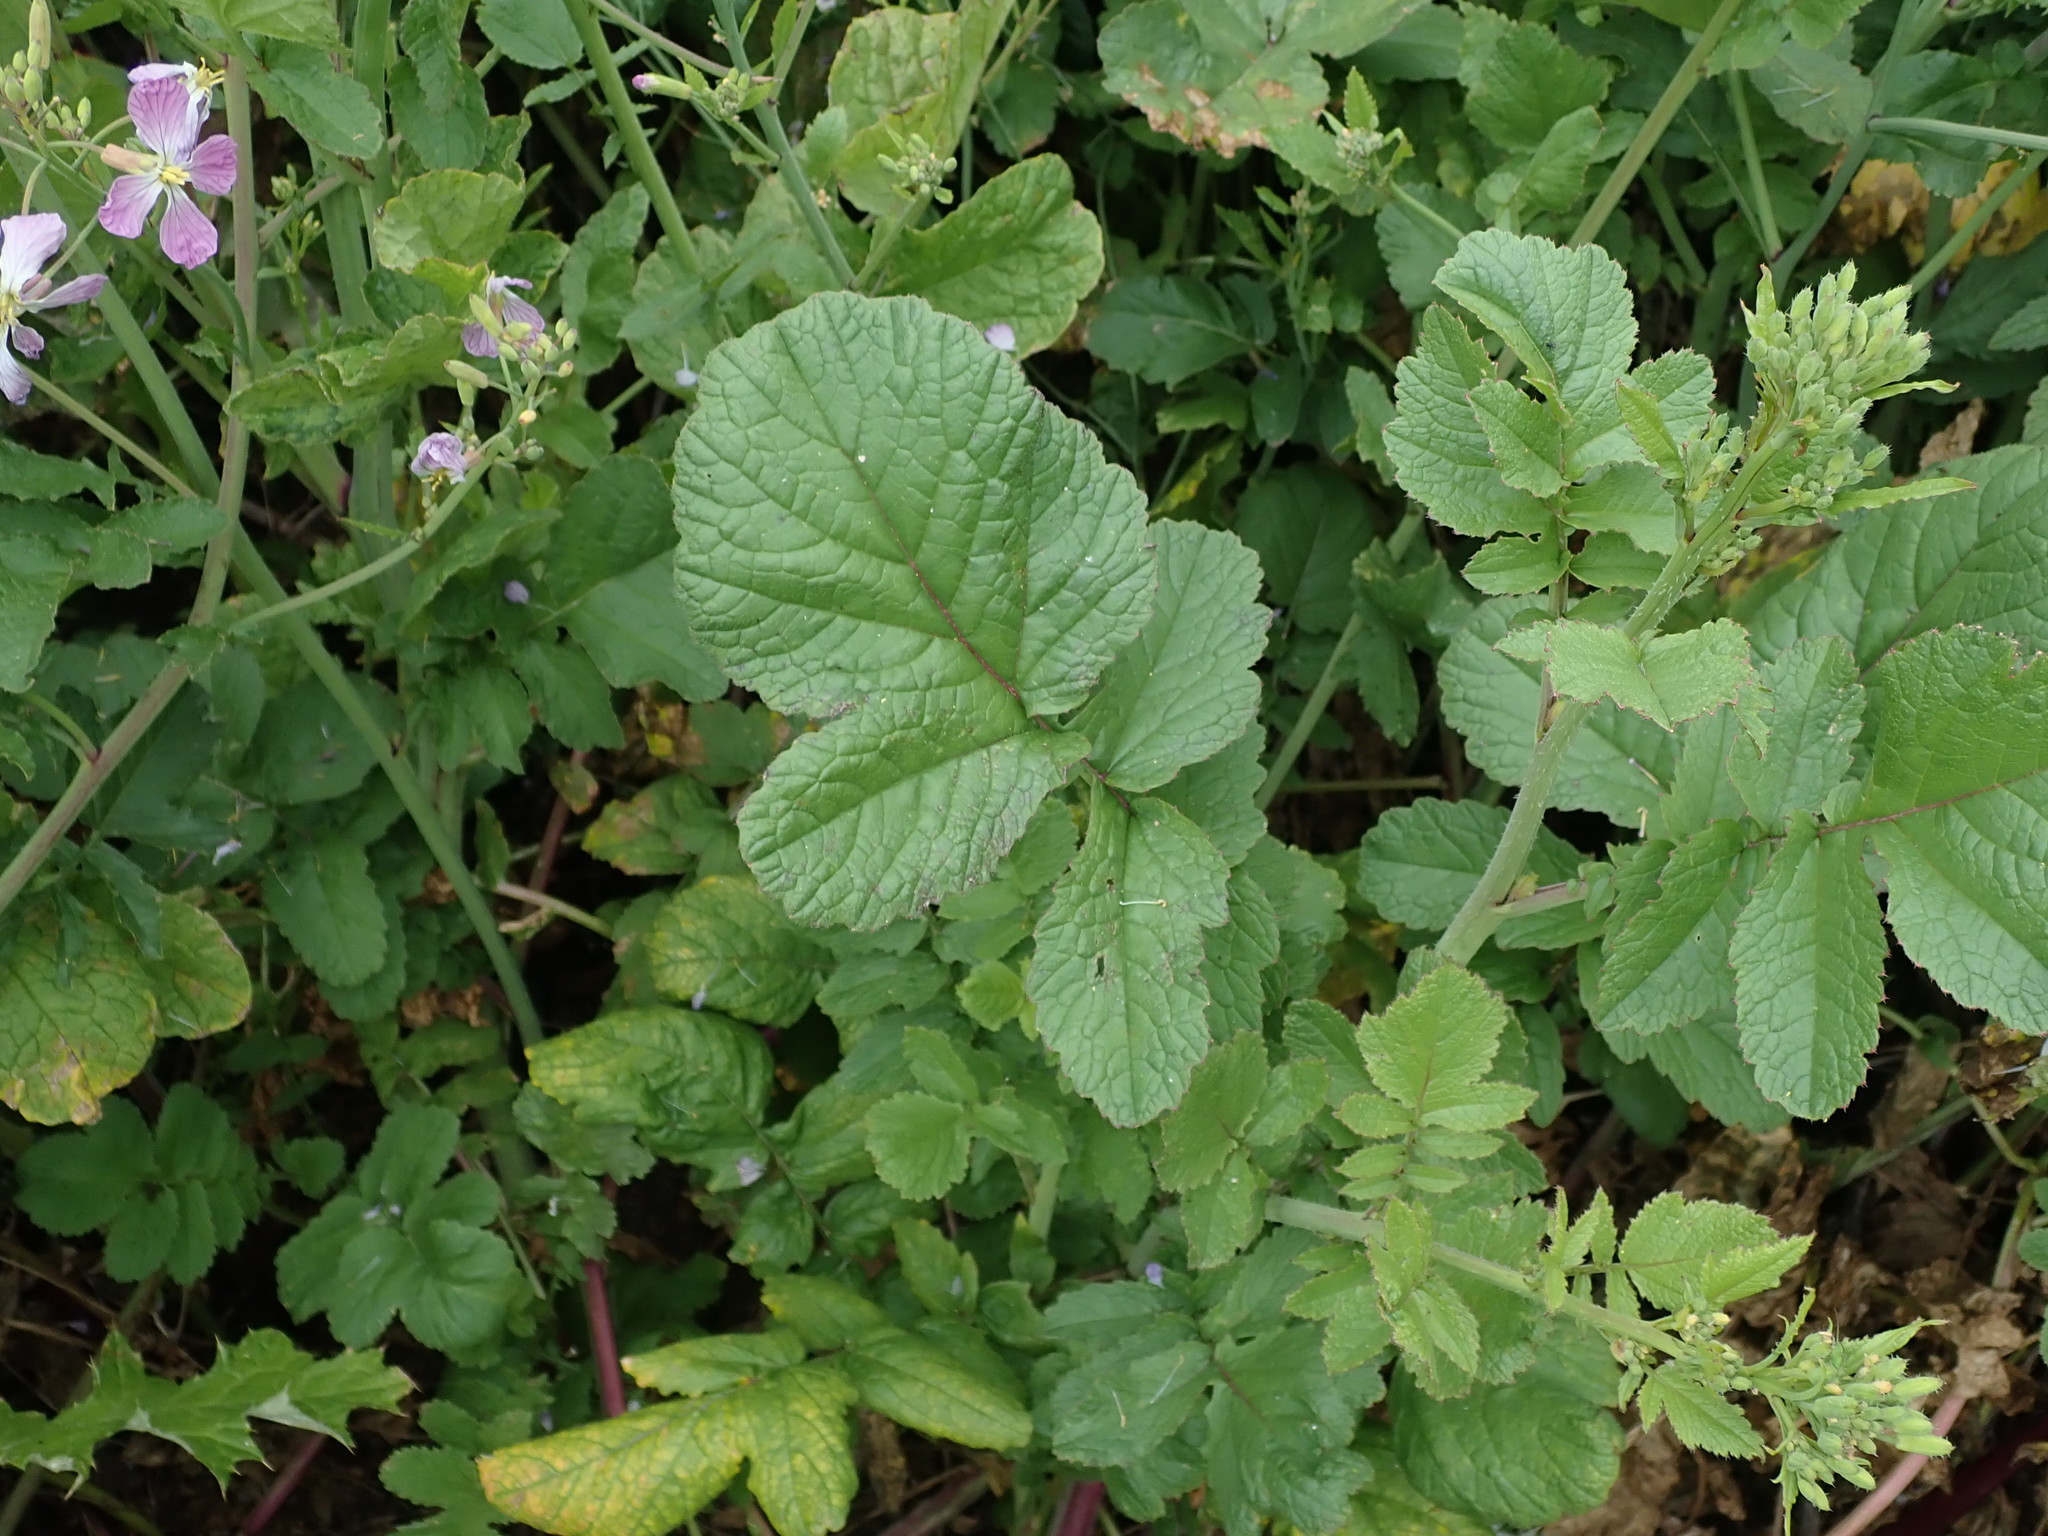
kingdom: Plantae
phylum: Tracheophyta
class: Magnoliopsida
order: Brassicales
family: Brassicaceae
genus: Raphanus
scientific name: Raphanus sativus
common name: Cultivated radish
